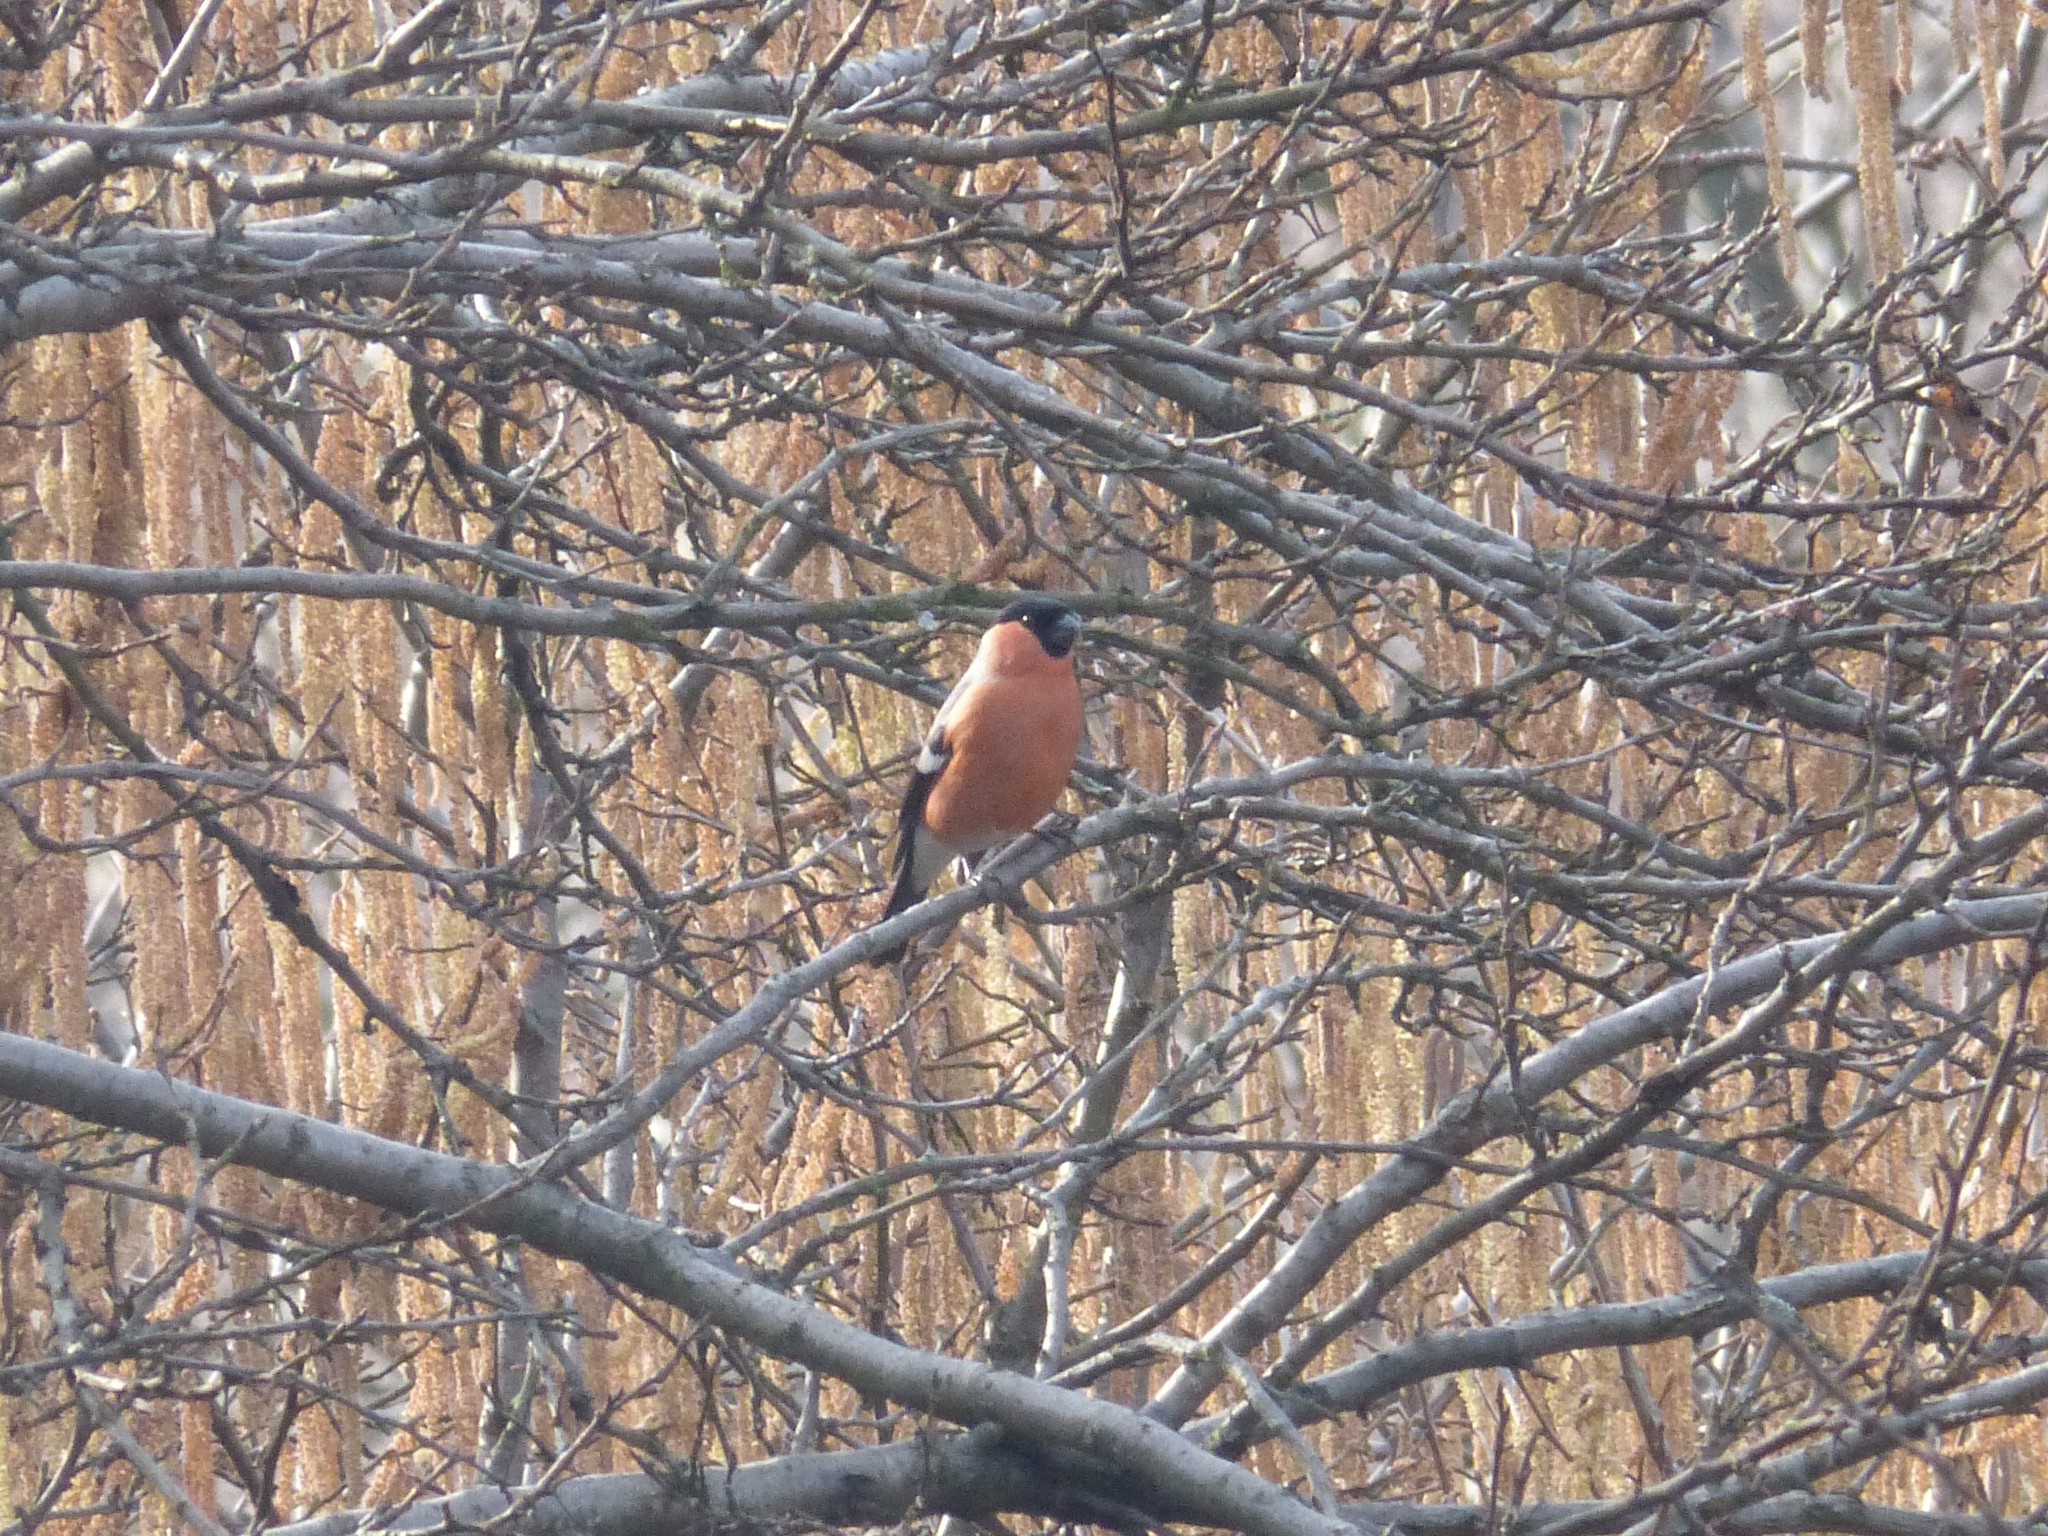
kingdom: Animalia
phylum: Chordata
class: Aves
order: Passeriformes
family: Fringillidae
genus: Pyrrhula
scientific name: Pyrrhula pyrrhula
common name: Eurasian bullfinch
